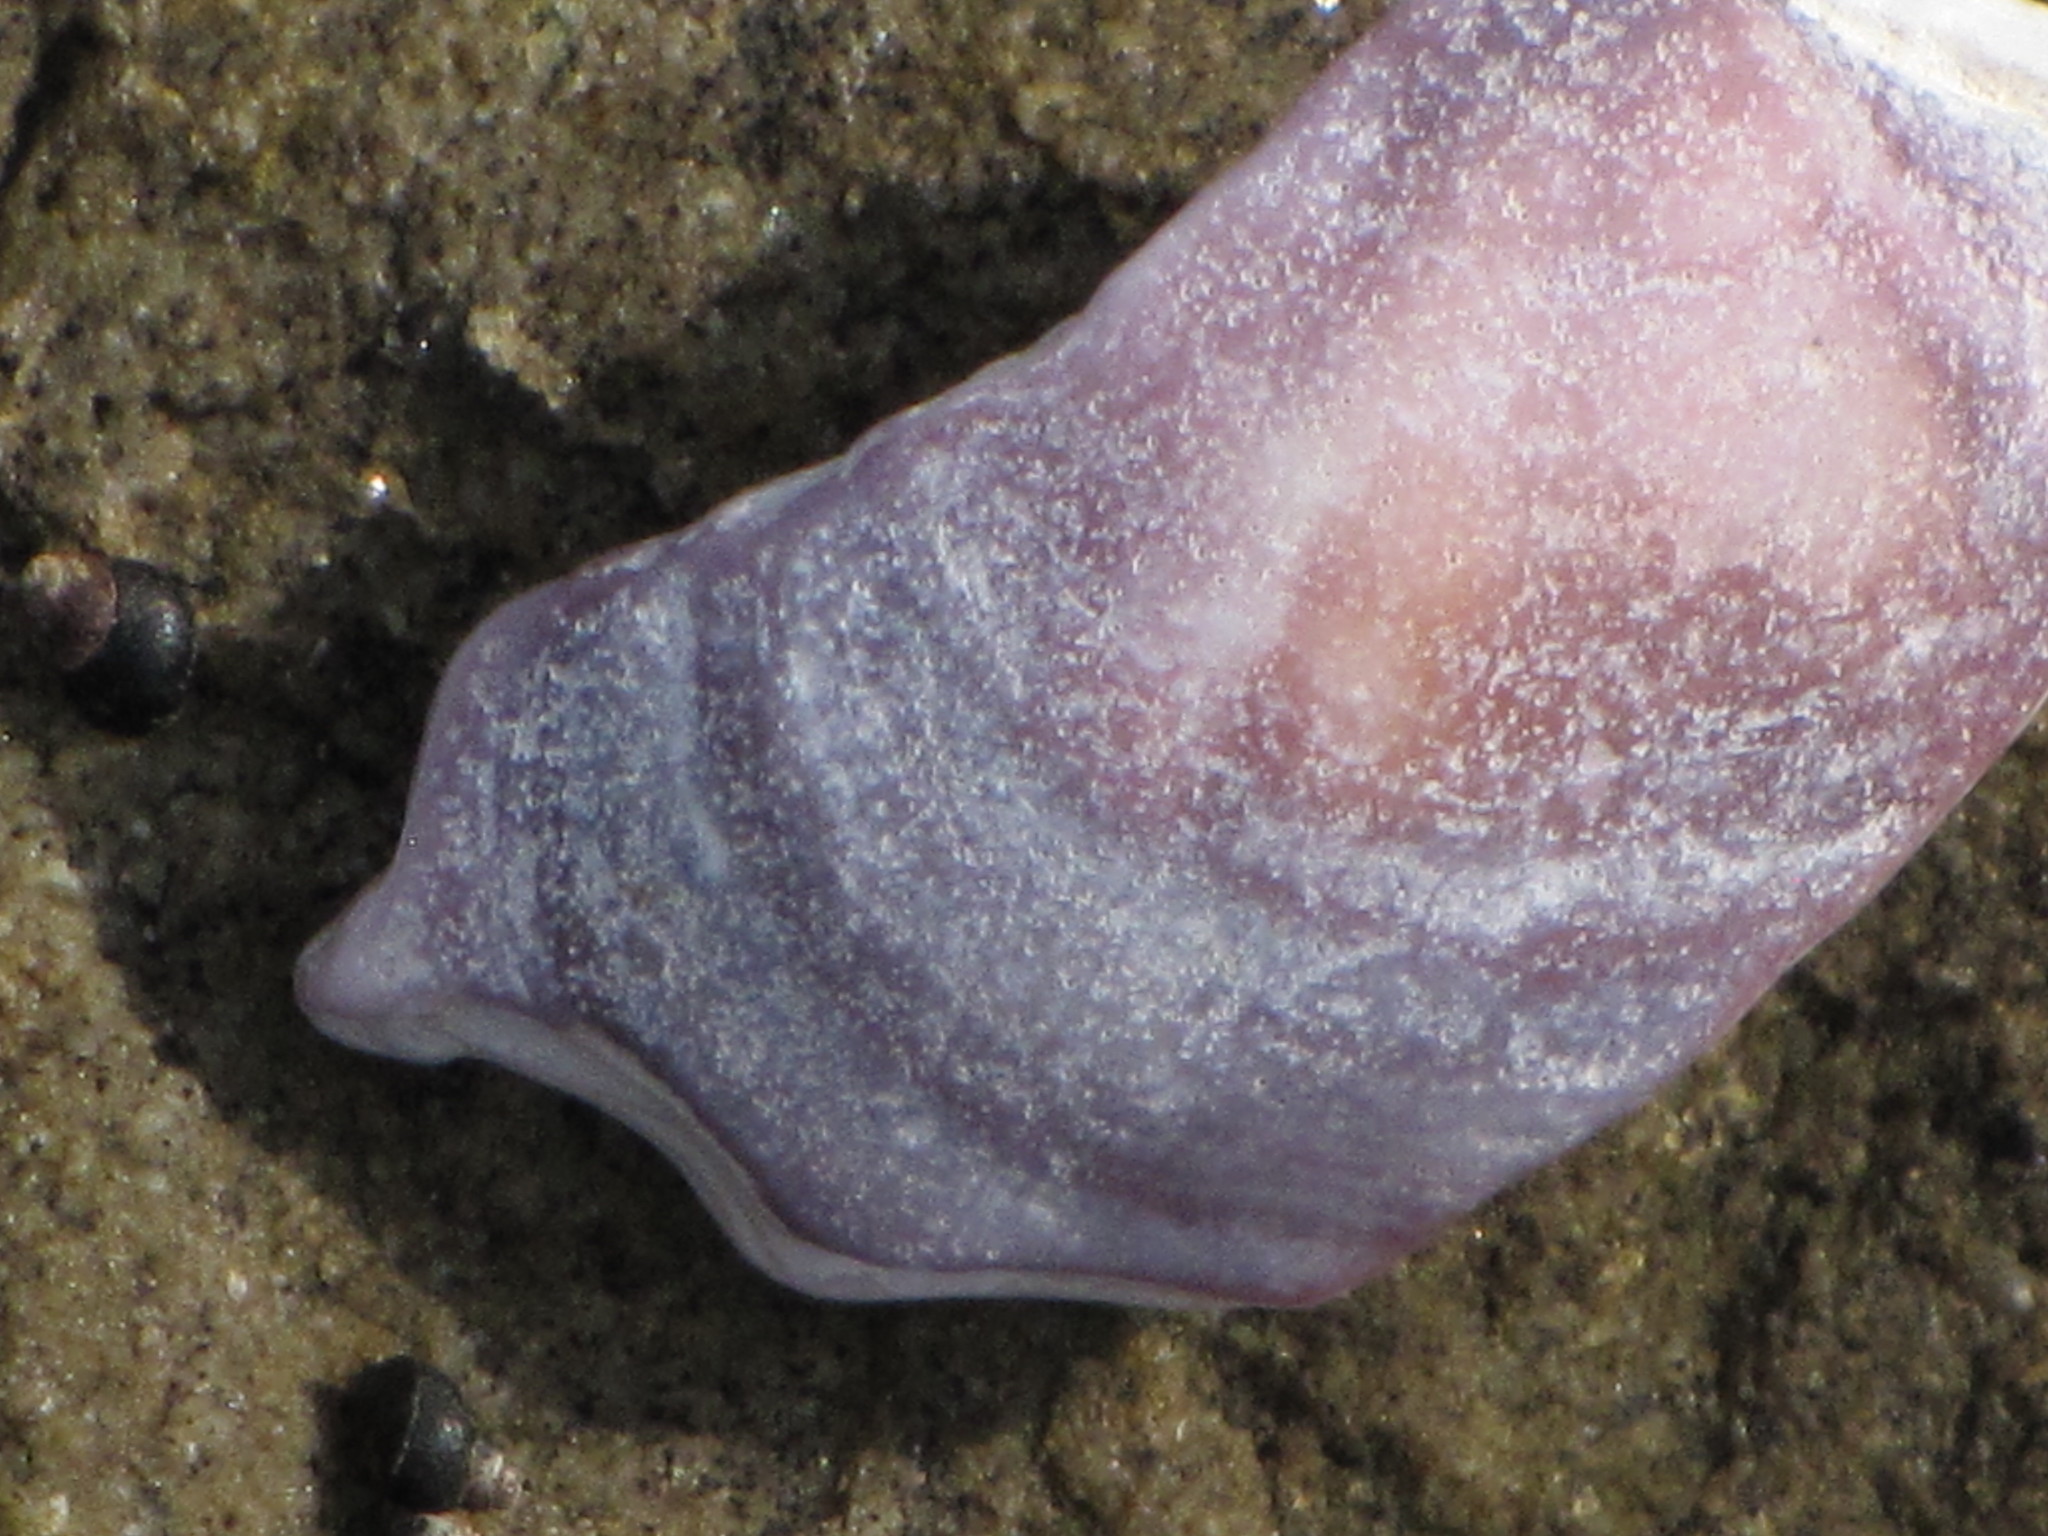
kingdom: Animalia
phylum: Mollusca
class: Bivalvia
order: Cardiida
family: Psammobiidae
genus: Nuttallia
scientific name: Nuttallia obscurata
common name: Purple mahogany-clam
